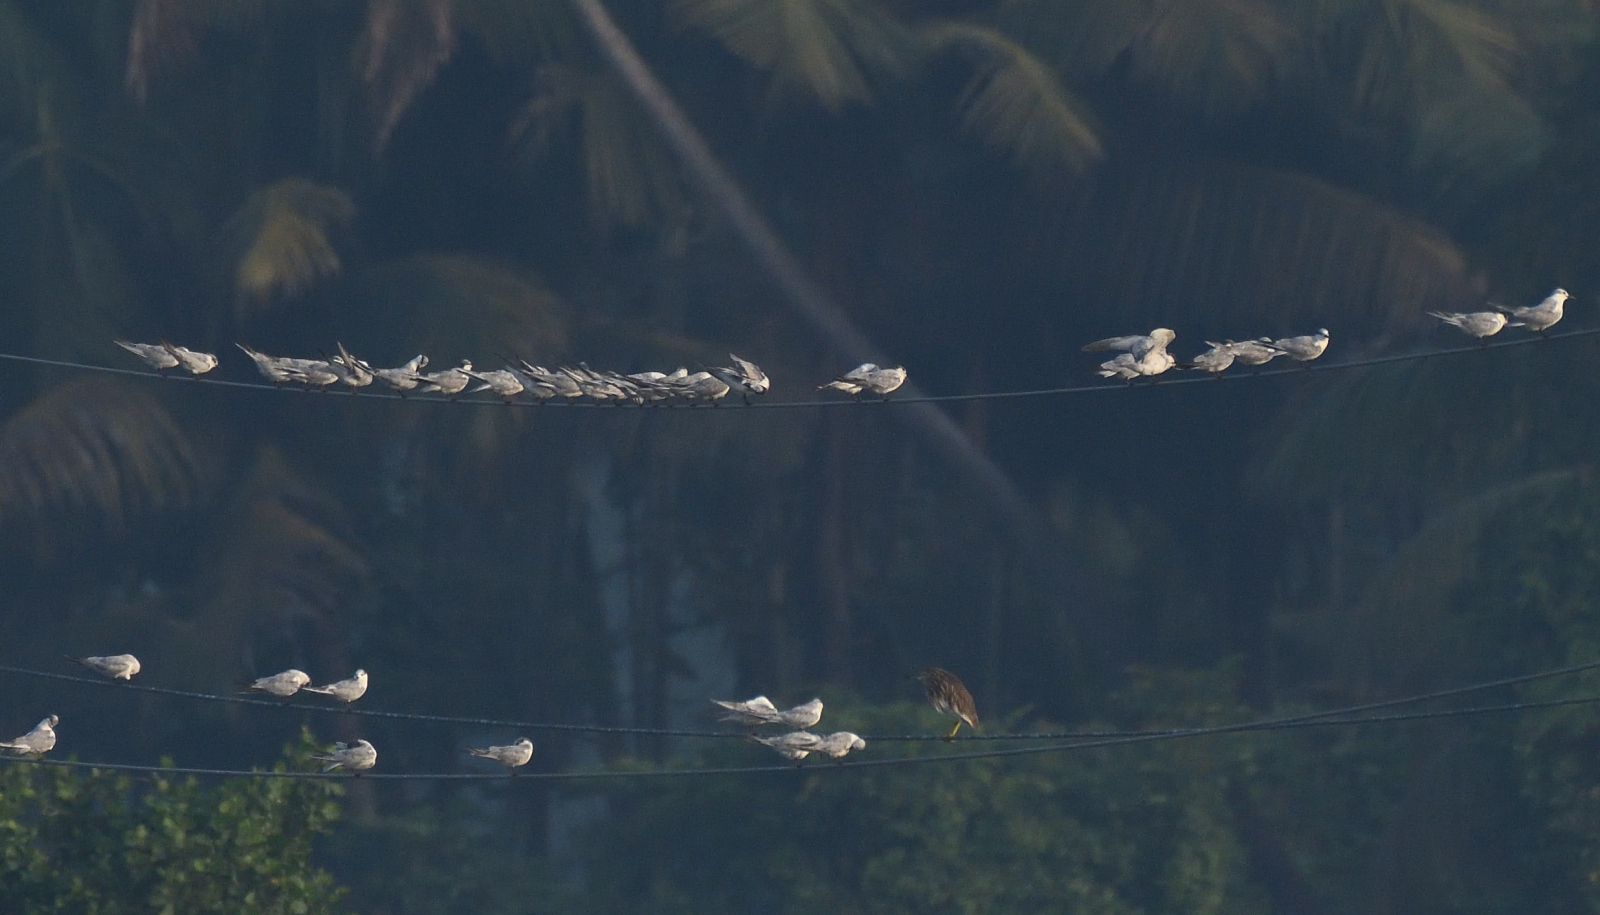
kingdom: Animalia
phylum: Chordata
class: Aves
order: Charadriiformes
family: Laridae
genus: Chlidonias
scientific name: Chlidonias hybrida
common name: Whiskered tern
